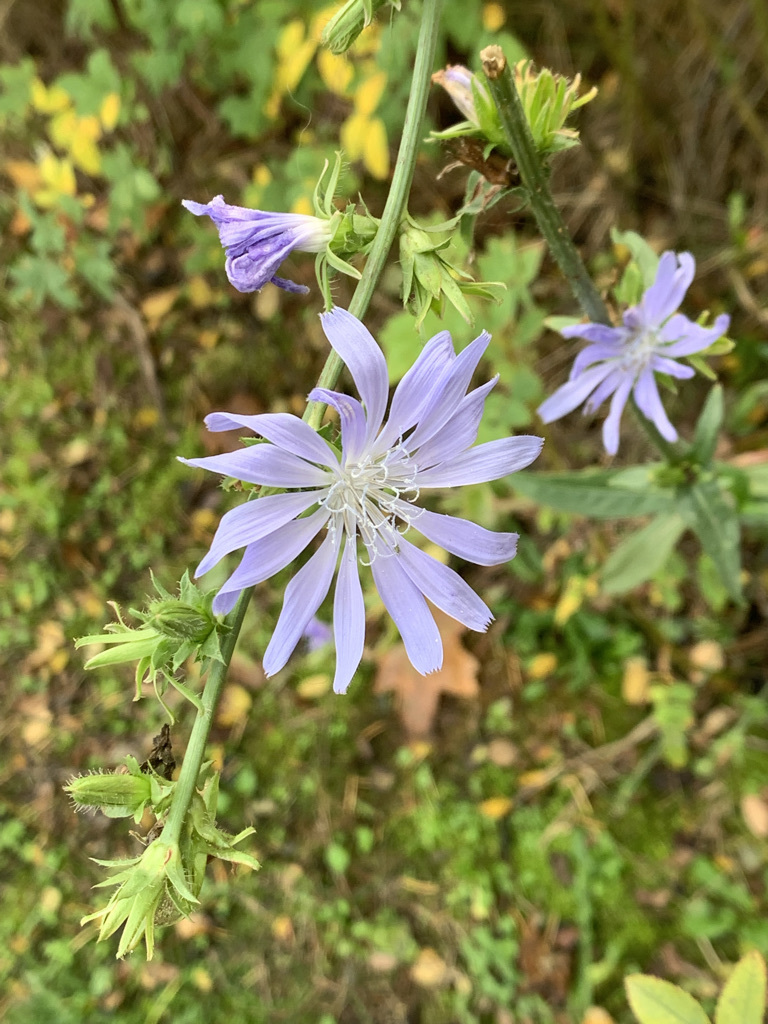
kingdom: Plantae
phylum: Tracheophyta
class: Magnoliopsida
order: Asterales
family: Asteraceae
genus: Cichorium
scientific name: Cichorium intybus
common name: Chicory
